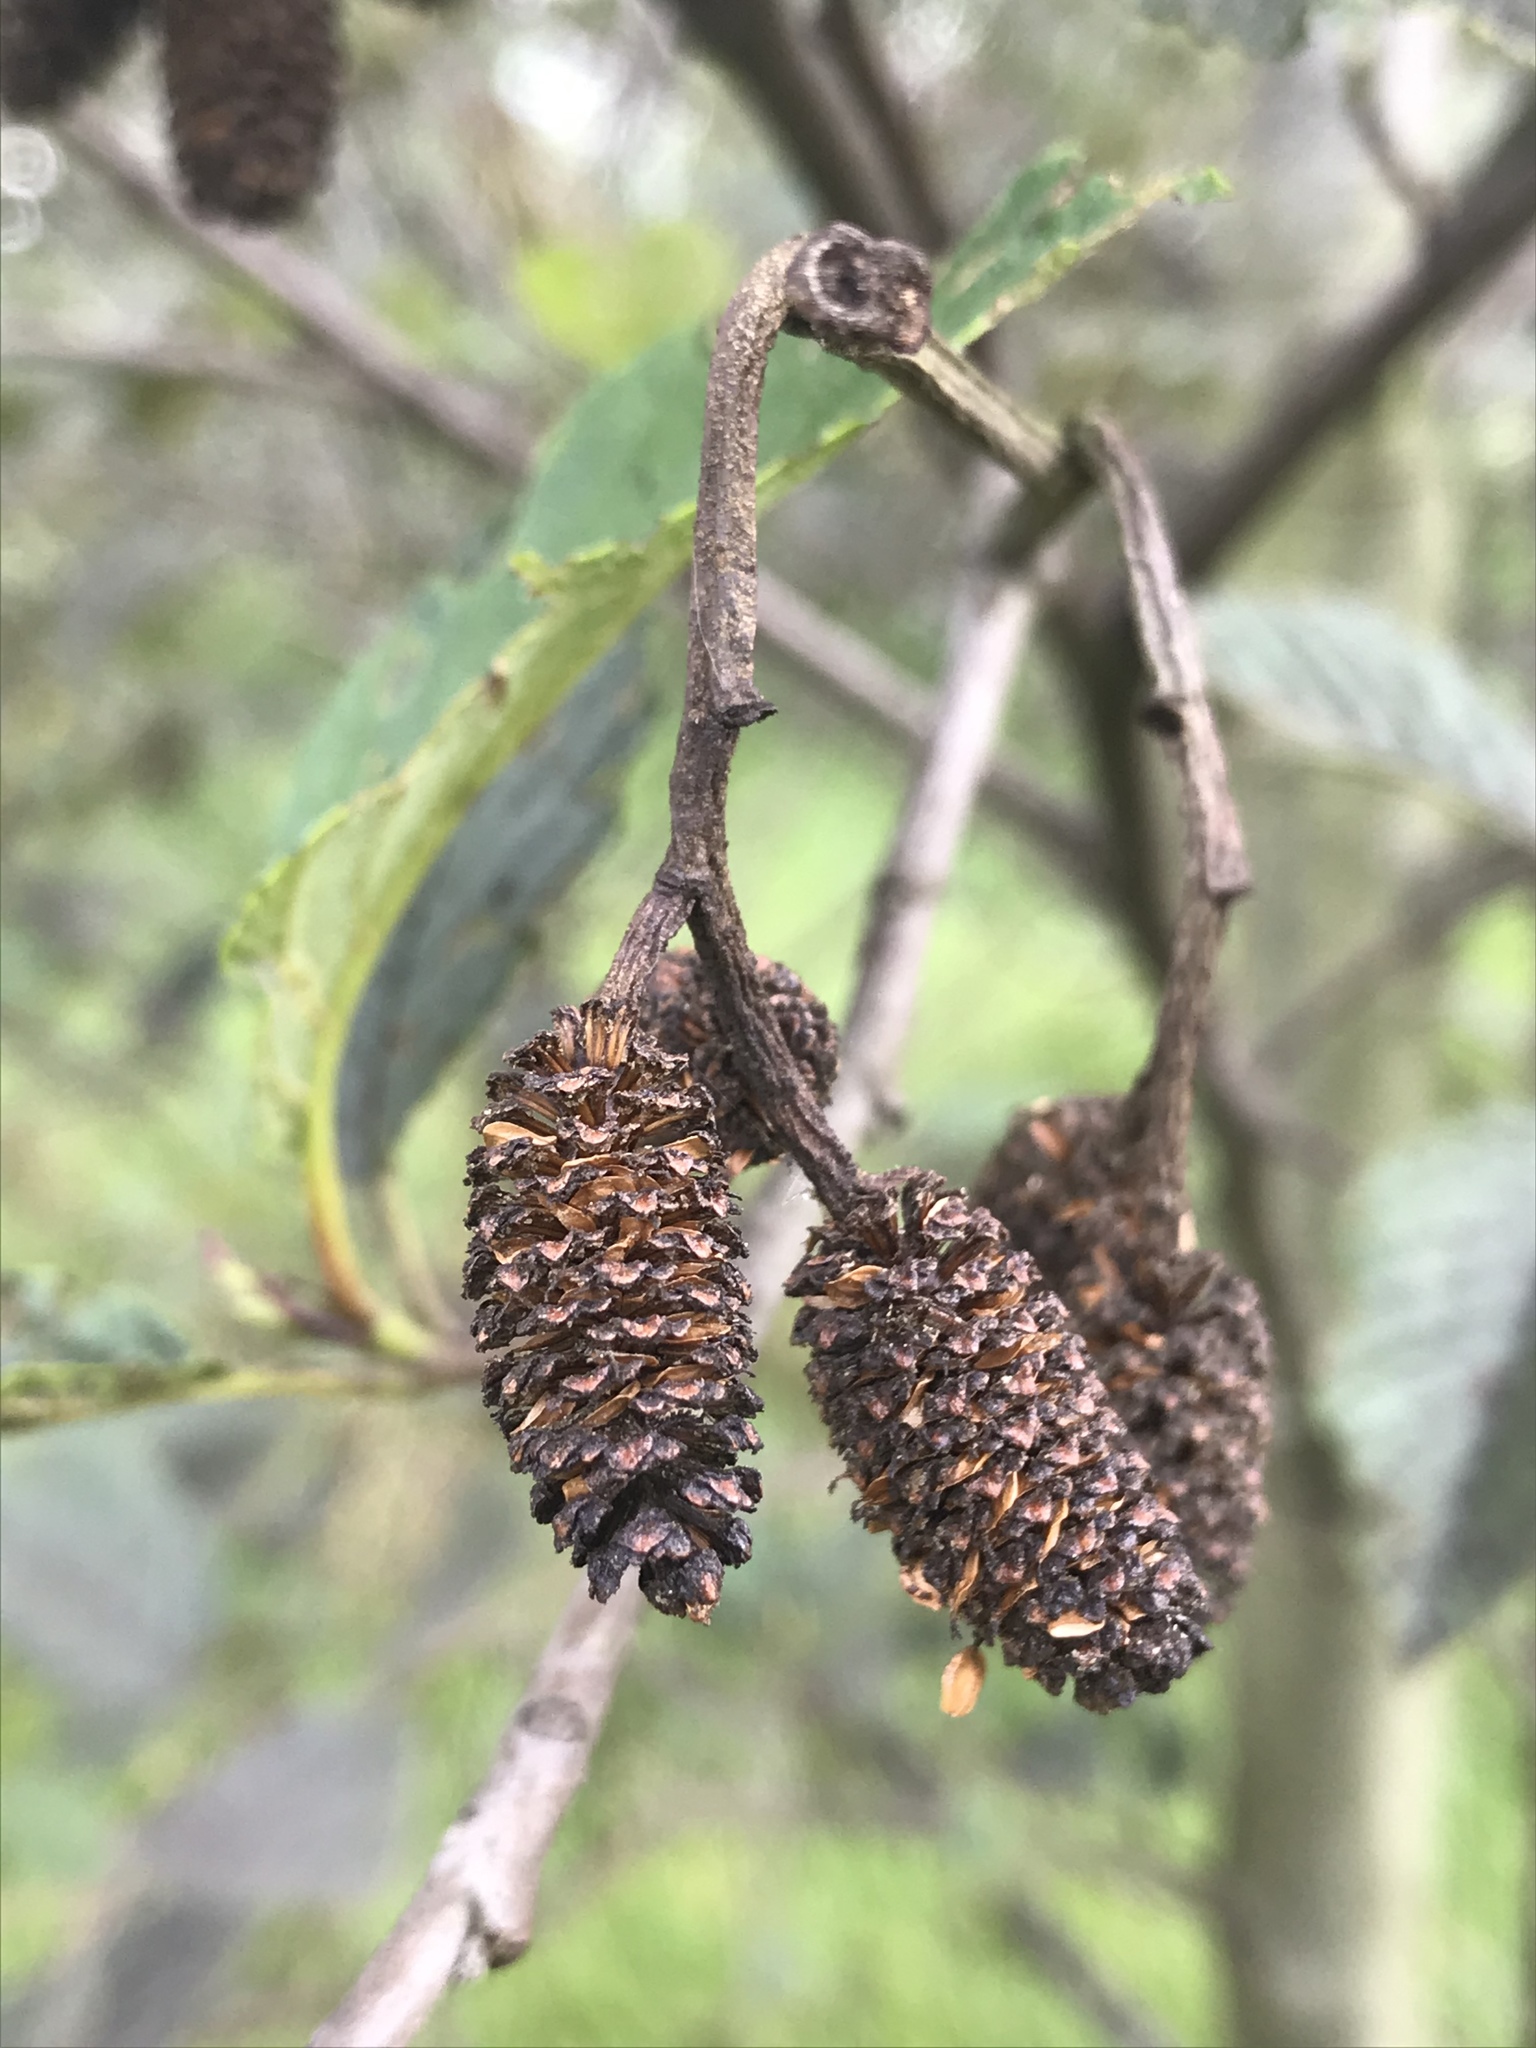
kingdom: Plantae
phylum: Tracheophyta
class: Magnoliopsida
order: Fagales
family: Betulaceae
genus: Alnus
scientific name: Alnus acuminata
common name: Alder
